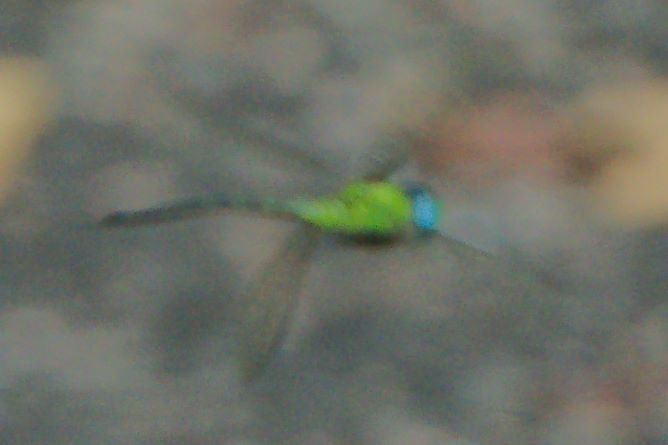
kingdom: Animalia
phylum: Arthropoda
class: Insecta
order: Odonata
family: Aeshnidae
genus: Coryphaeschna
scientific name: Coryphaeschna adnexa
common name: Blue-faced darner
